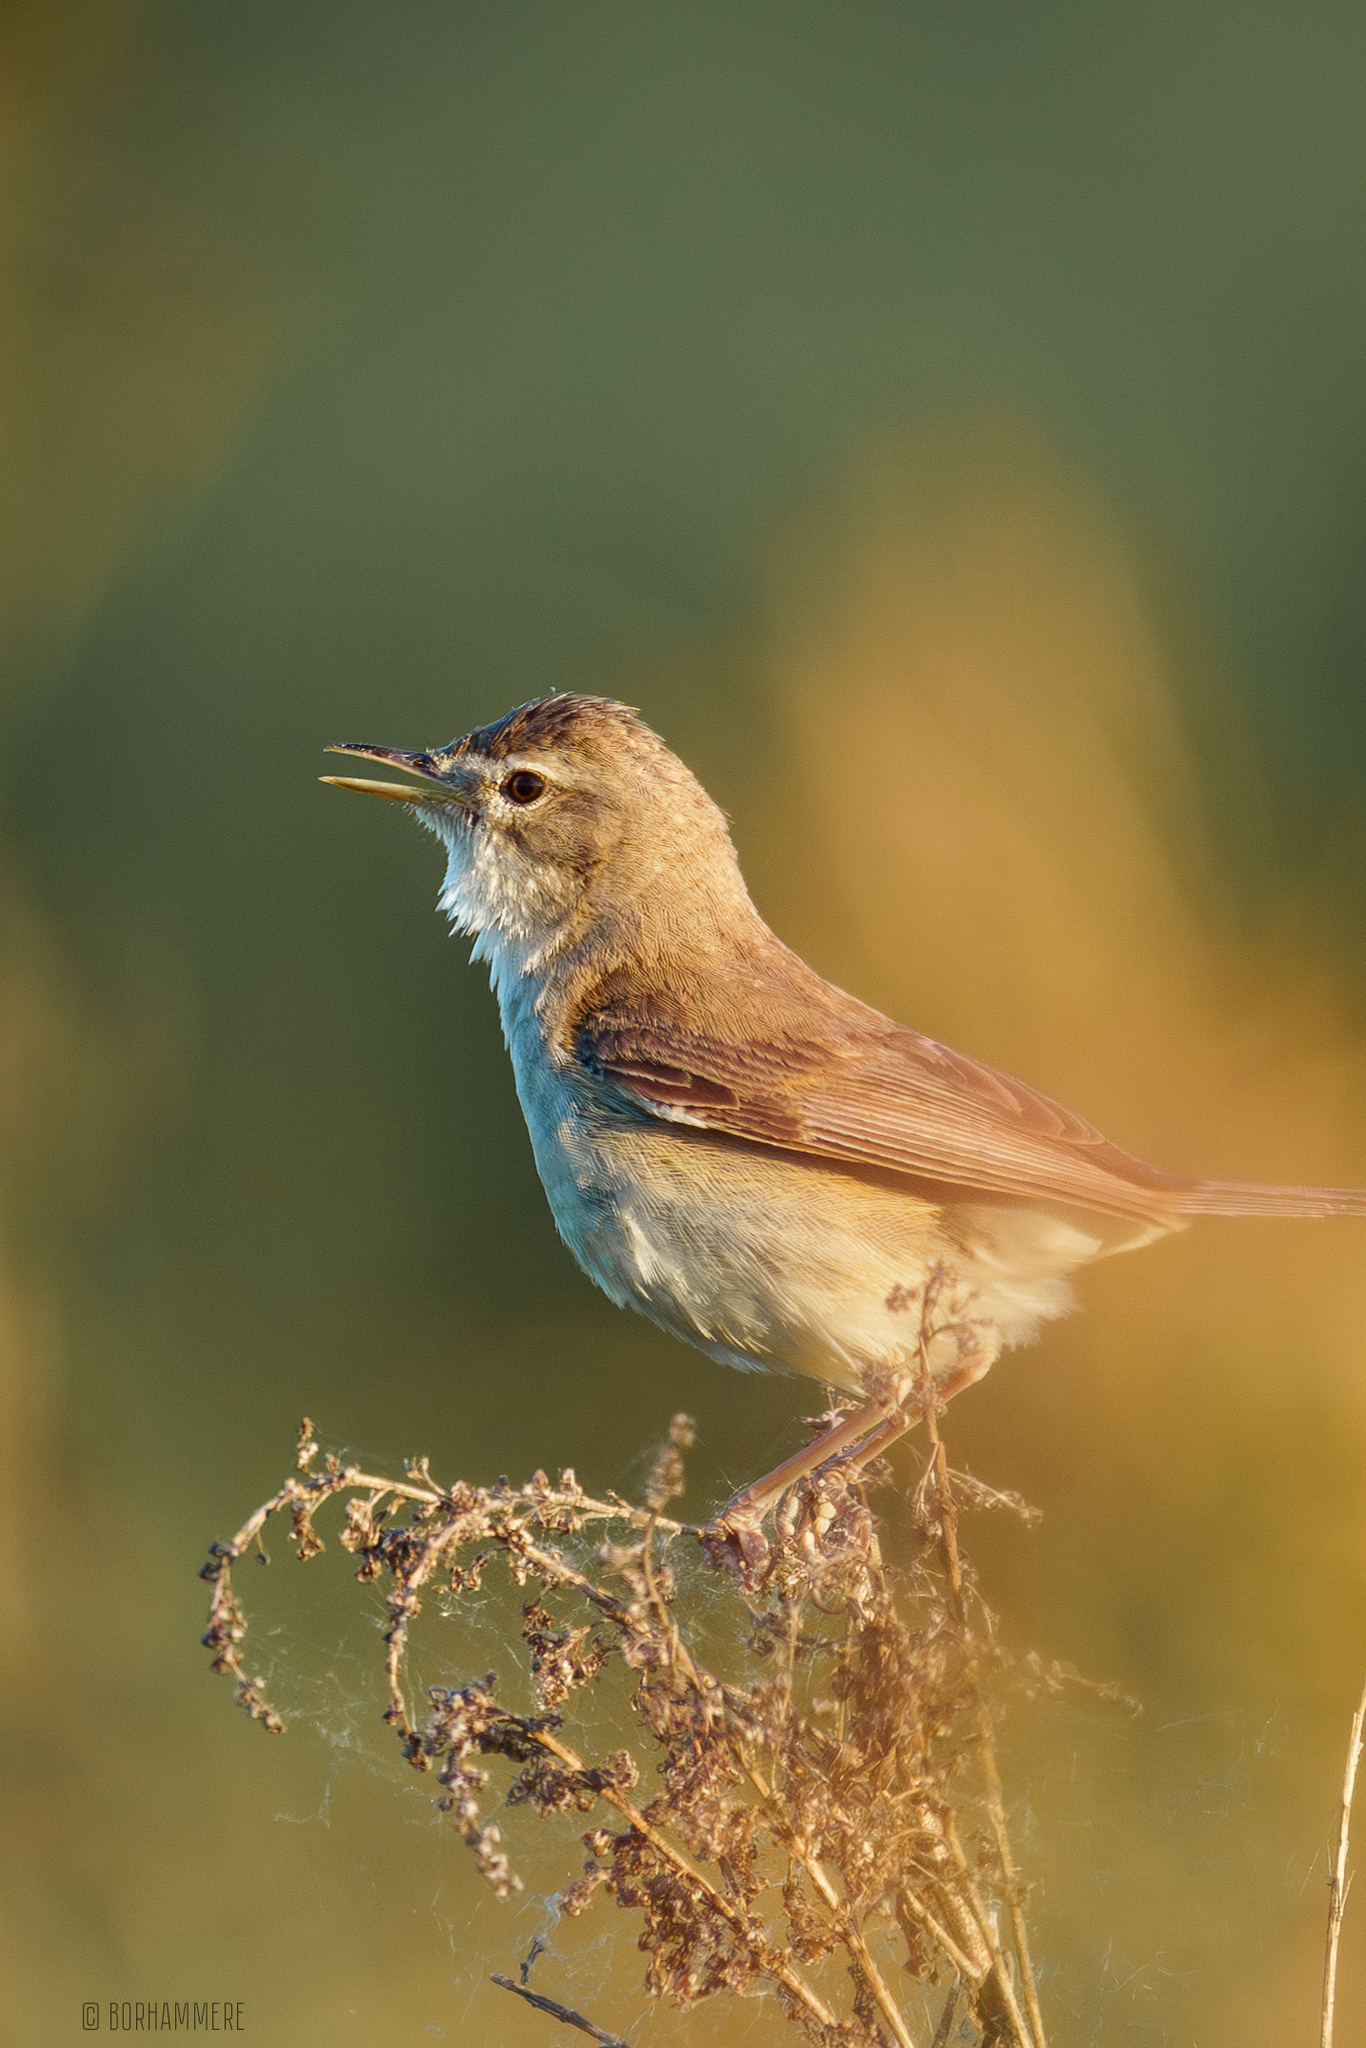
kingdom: Animalia
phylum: Chordata
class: Aves
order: Passeriformes
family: Acrocephalidae
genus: Iduna
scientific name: Iduna caligata
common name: Booted warbler
